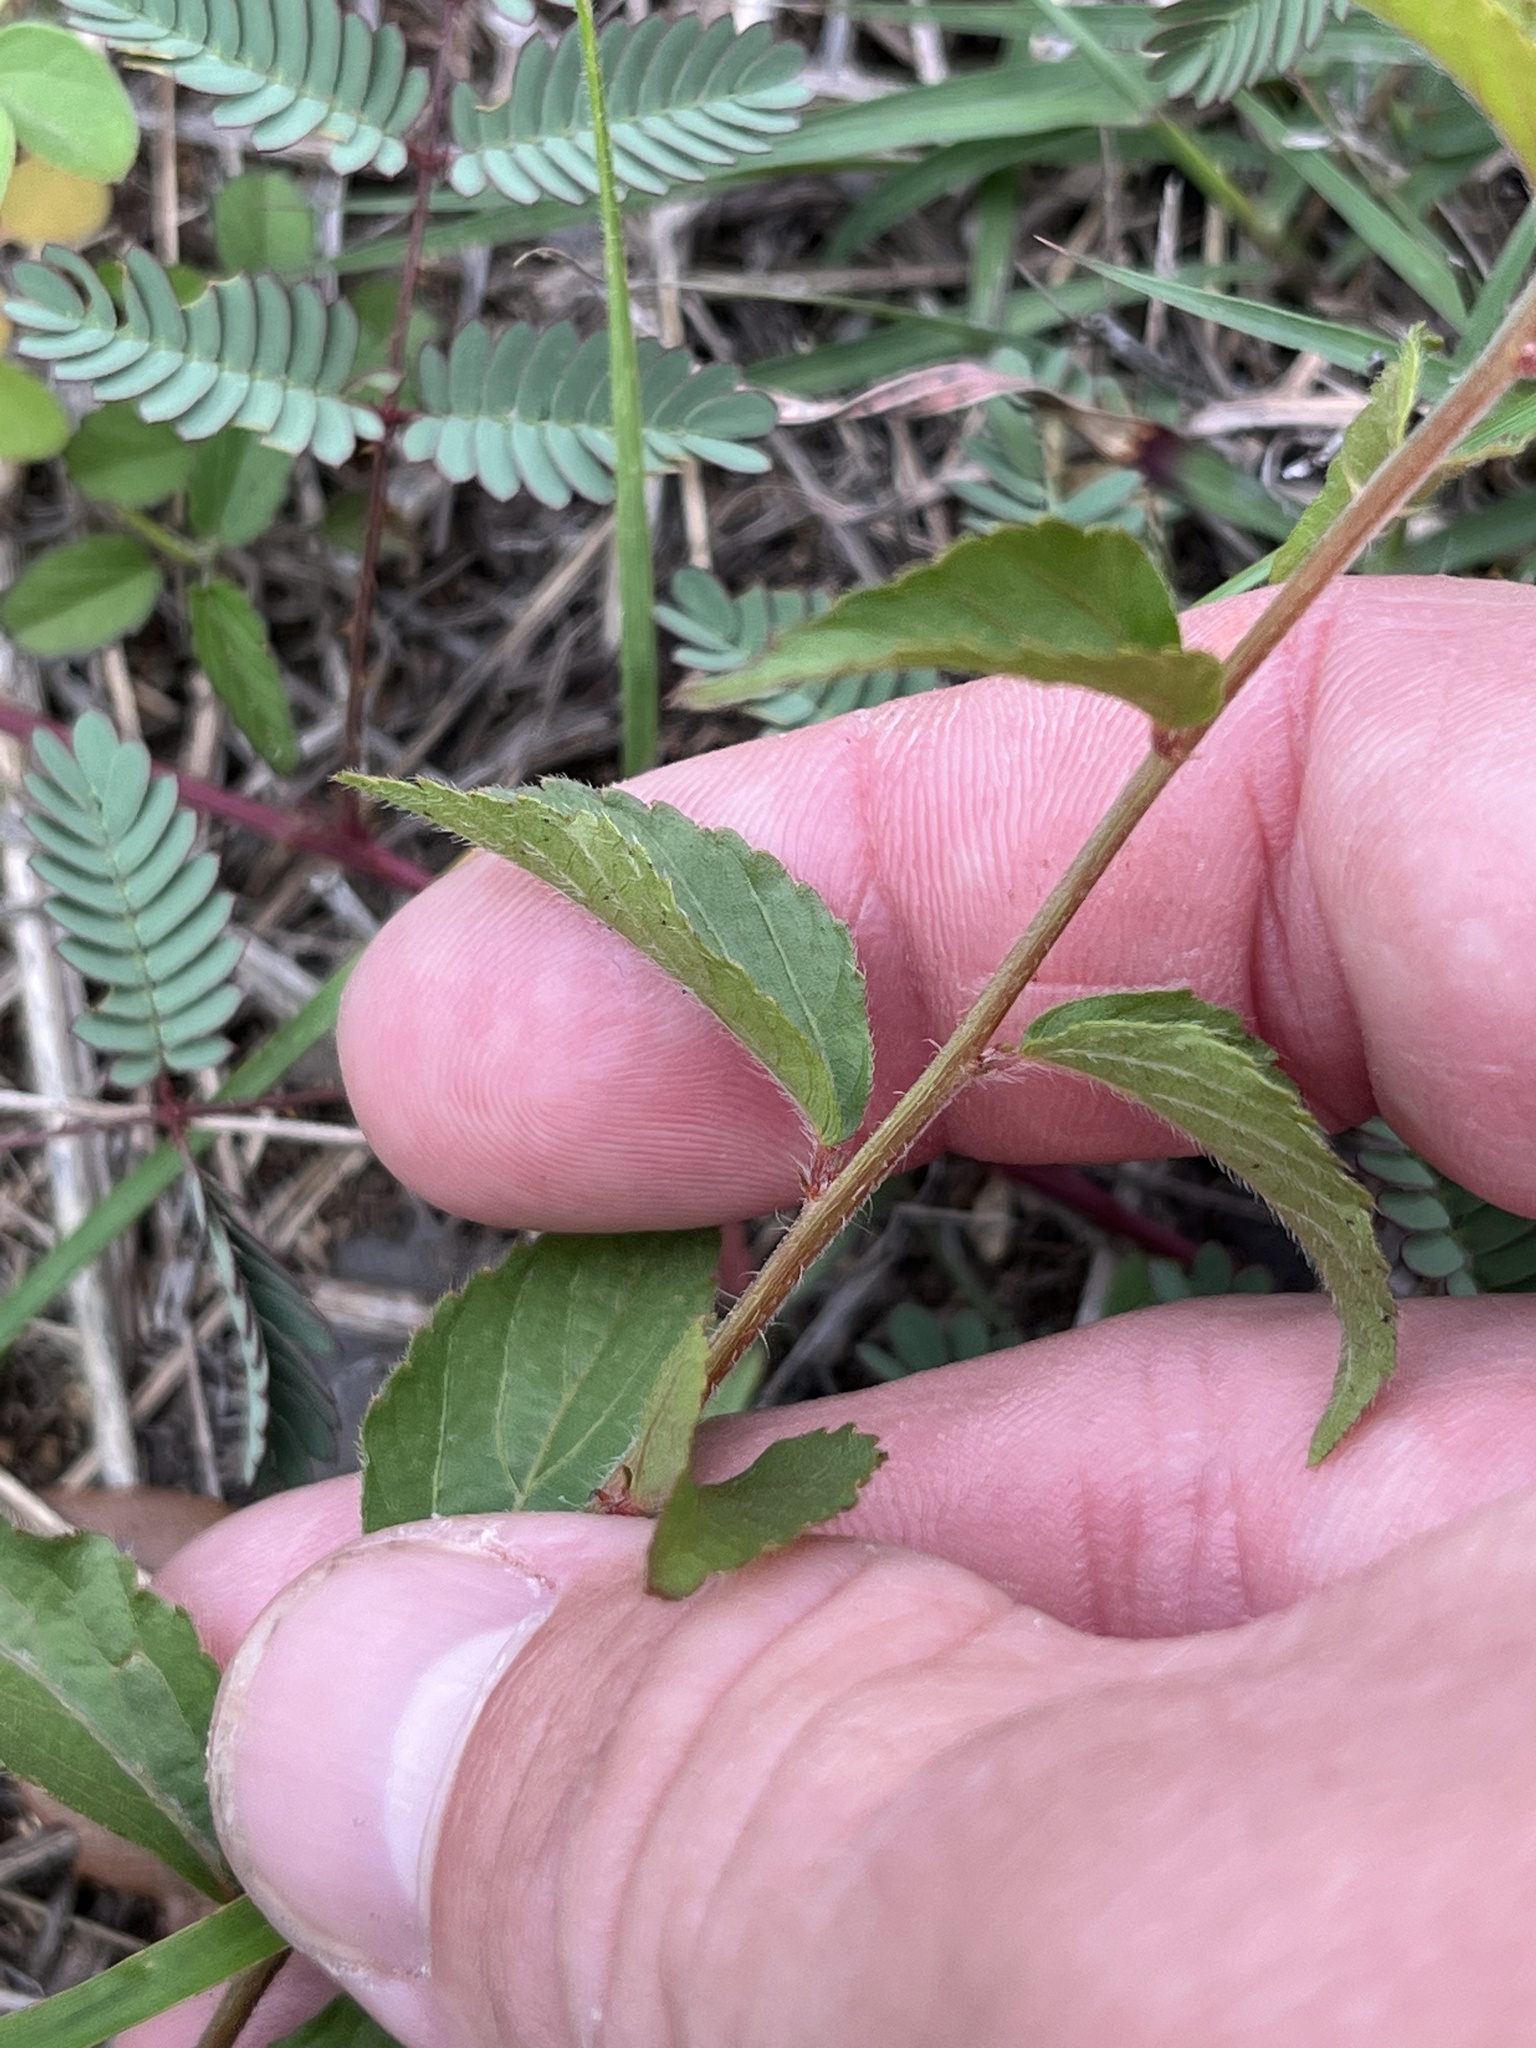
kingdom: Plantae
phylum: Tracheophyta
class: Magnoliopsida
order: Malpighiales
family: Euphorbiaceae
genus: Acalypha
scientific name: Acalypha phleoides
